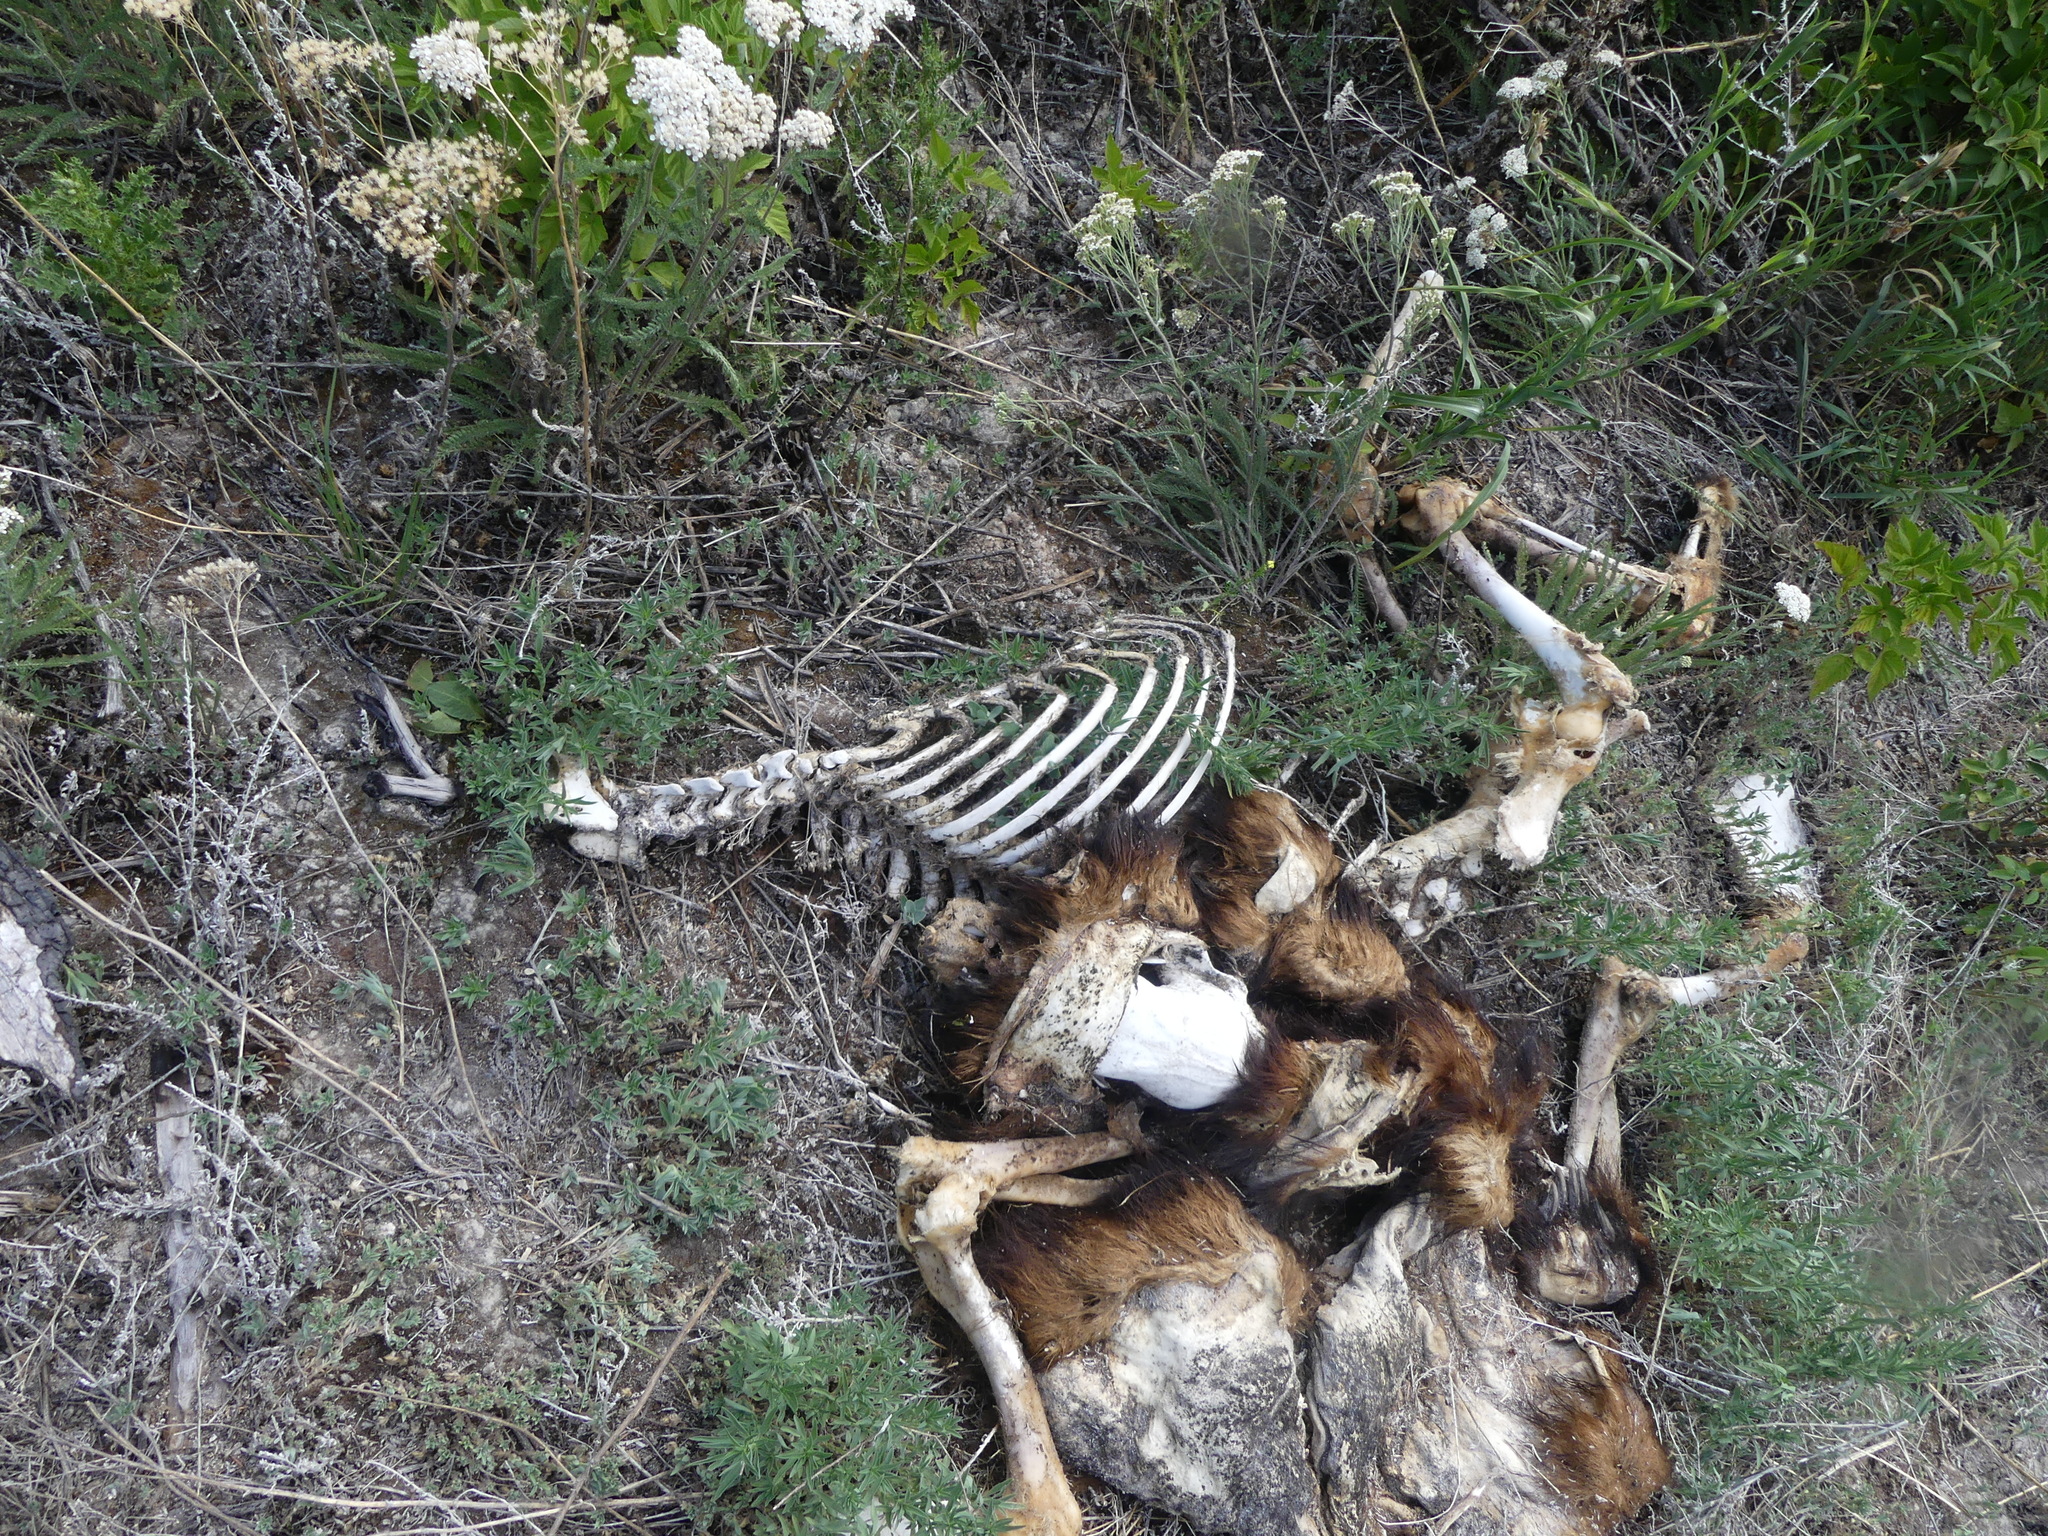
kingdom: Animalia
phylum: Chordata
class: Mammalia
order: Carnivora
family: Ursidae
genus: Ursus
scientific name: Ursus americanus
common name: American black bear
